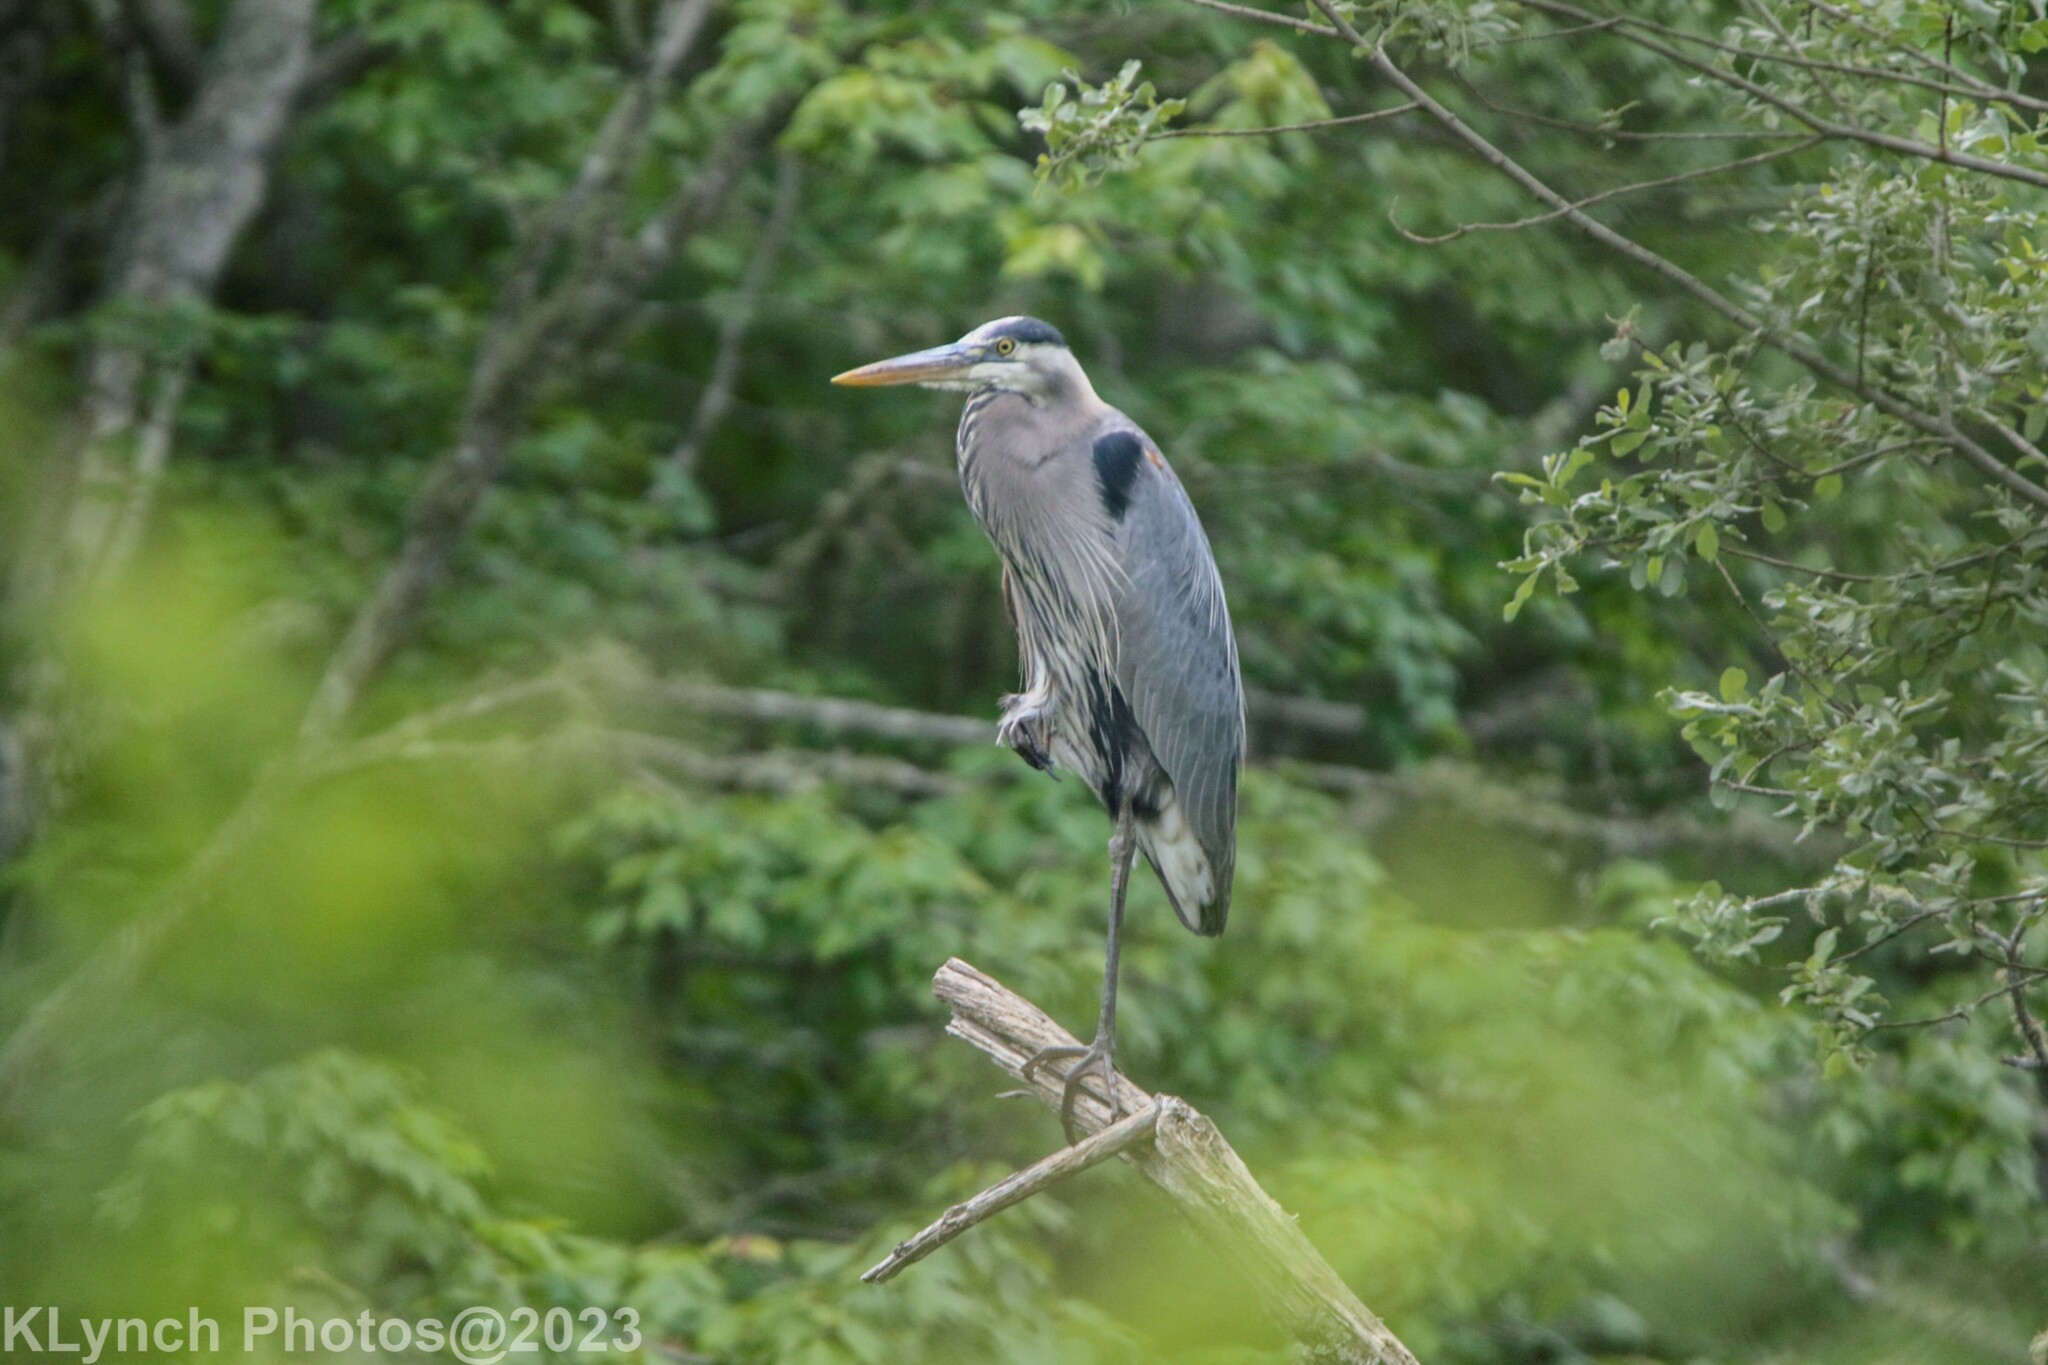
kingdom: Animalia
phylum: Chordata
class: Aves
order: Pelecaniformes
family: Ardeidae
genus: Ardea
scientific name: Ardea herodias
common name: Great blue heron
